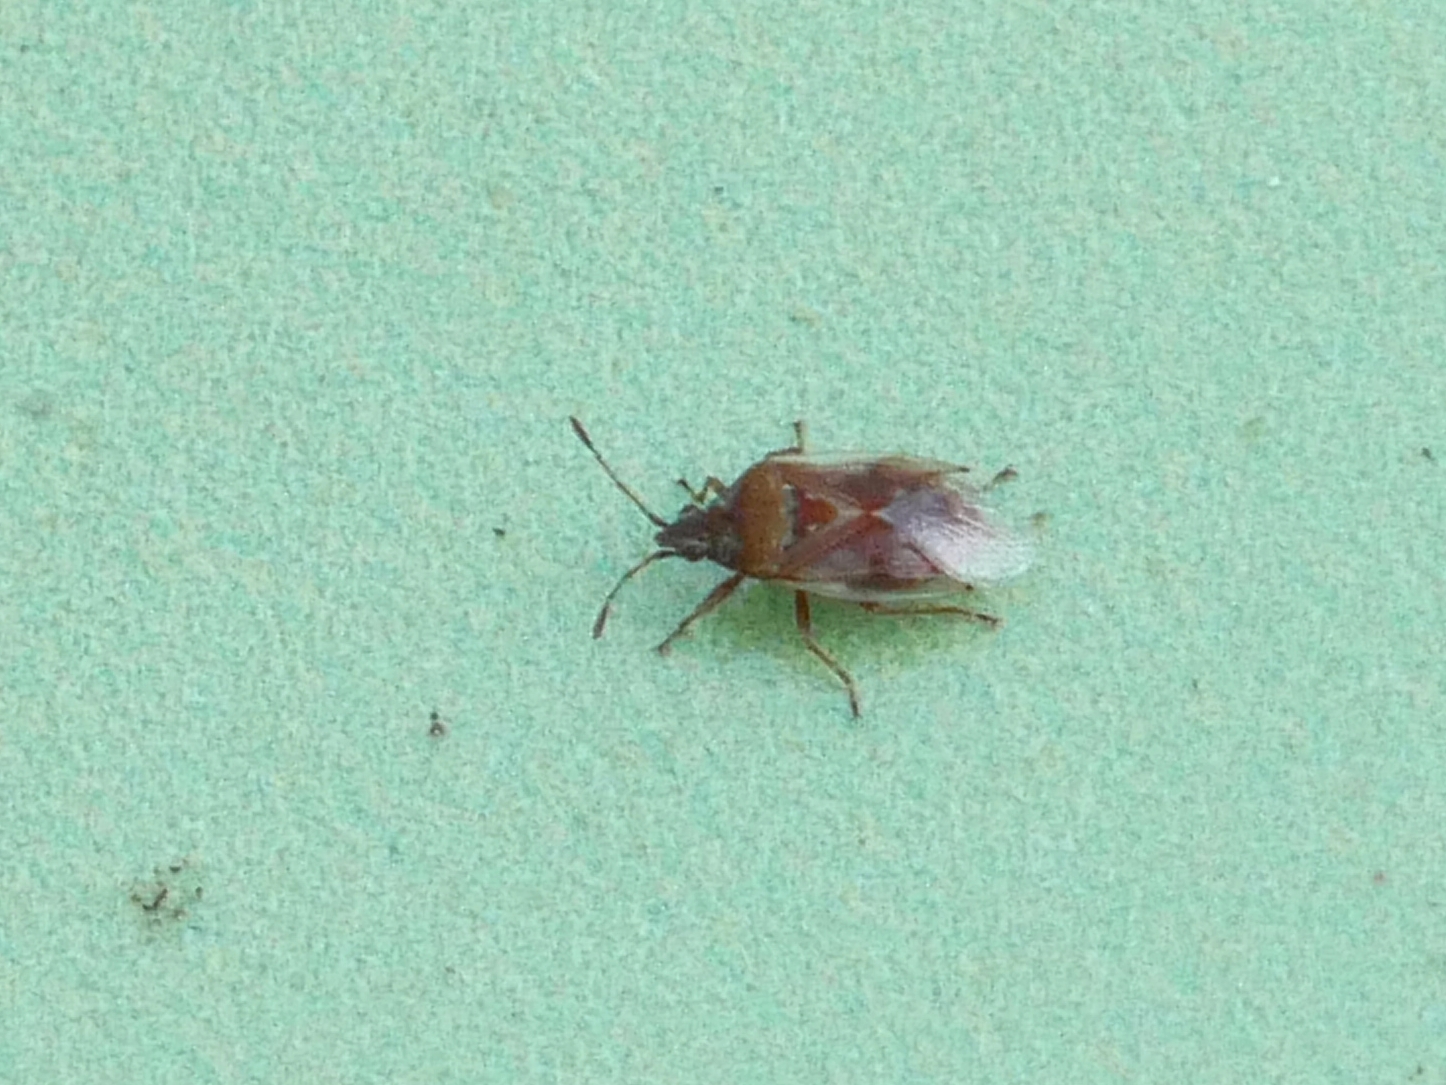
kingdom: Animalia
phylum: Arthropoda
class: Insecta
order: Hemiptera
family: Lygaeidae
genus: Kleidocerys
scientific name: Kleidocerys resedae
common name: Birch catkin bug
